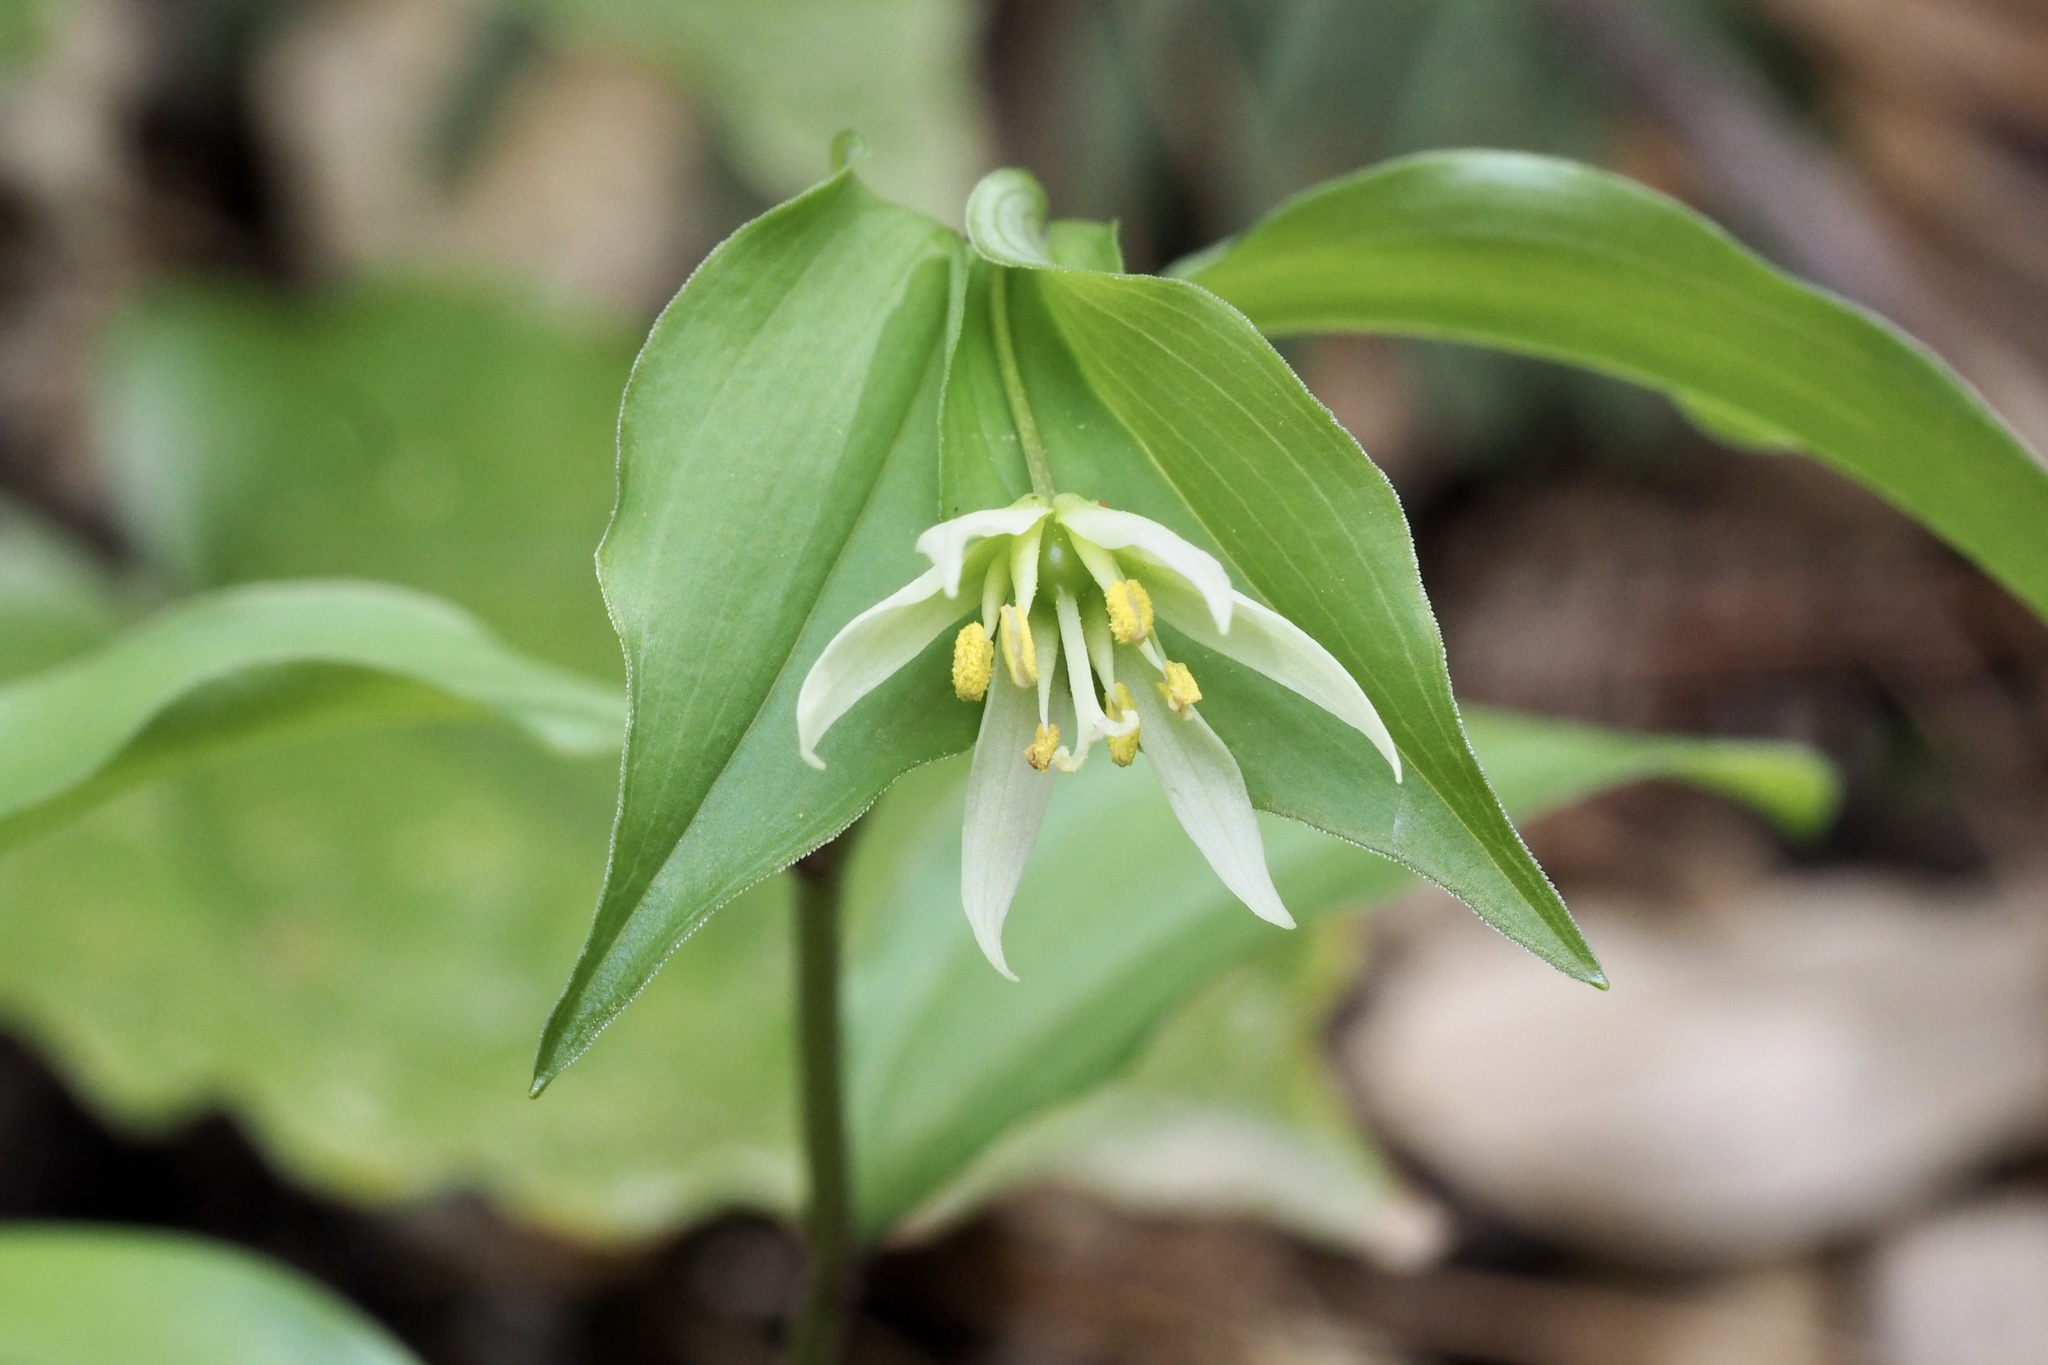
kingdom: Plantae
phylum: Tracheophyta
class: Liliopsida
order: Liliales
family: Colchicaceae
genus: Disporum
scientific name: Disporum smilacinum
